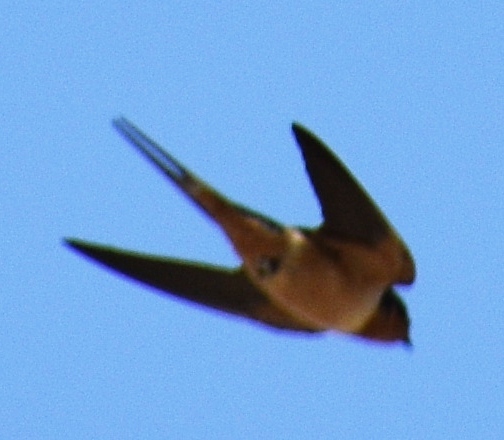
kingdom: Animalia
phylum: Chordata
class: Aves
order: Passeriformes
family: Hirundinidae
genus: Hirundo
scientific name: Hirundo rustica
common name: Barn swallow
